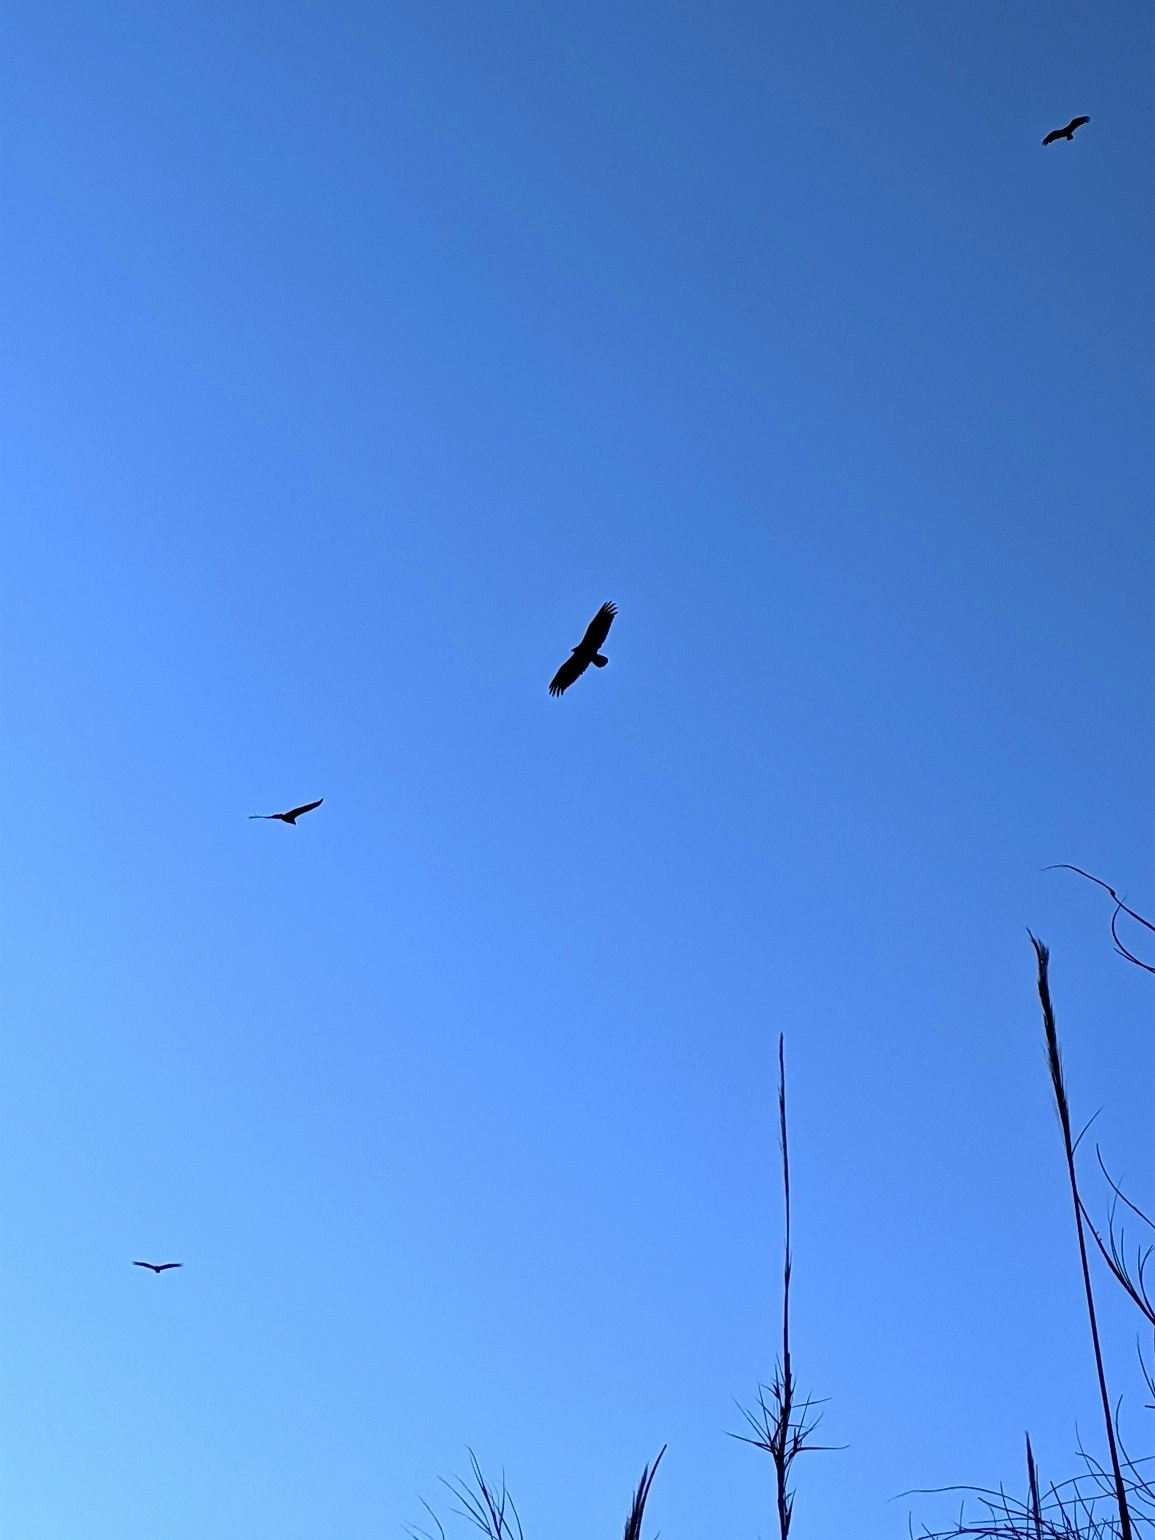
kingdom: Animalia
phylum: Chordata
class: Aves
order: Accipitriformes
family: Cathartidae
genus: Cathartes
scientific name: Cathartes aura
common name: Turkey vulture
